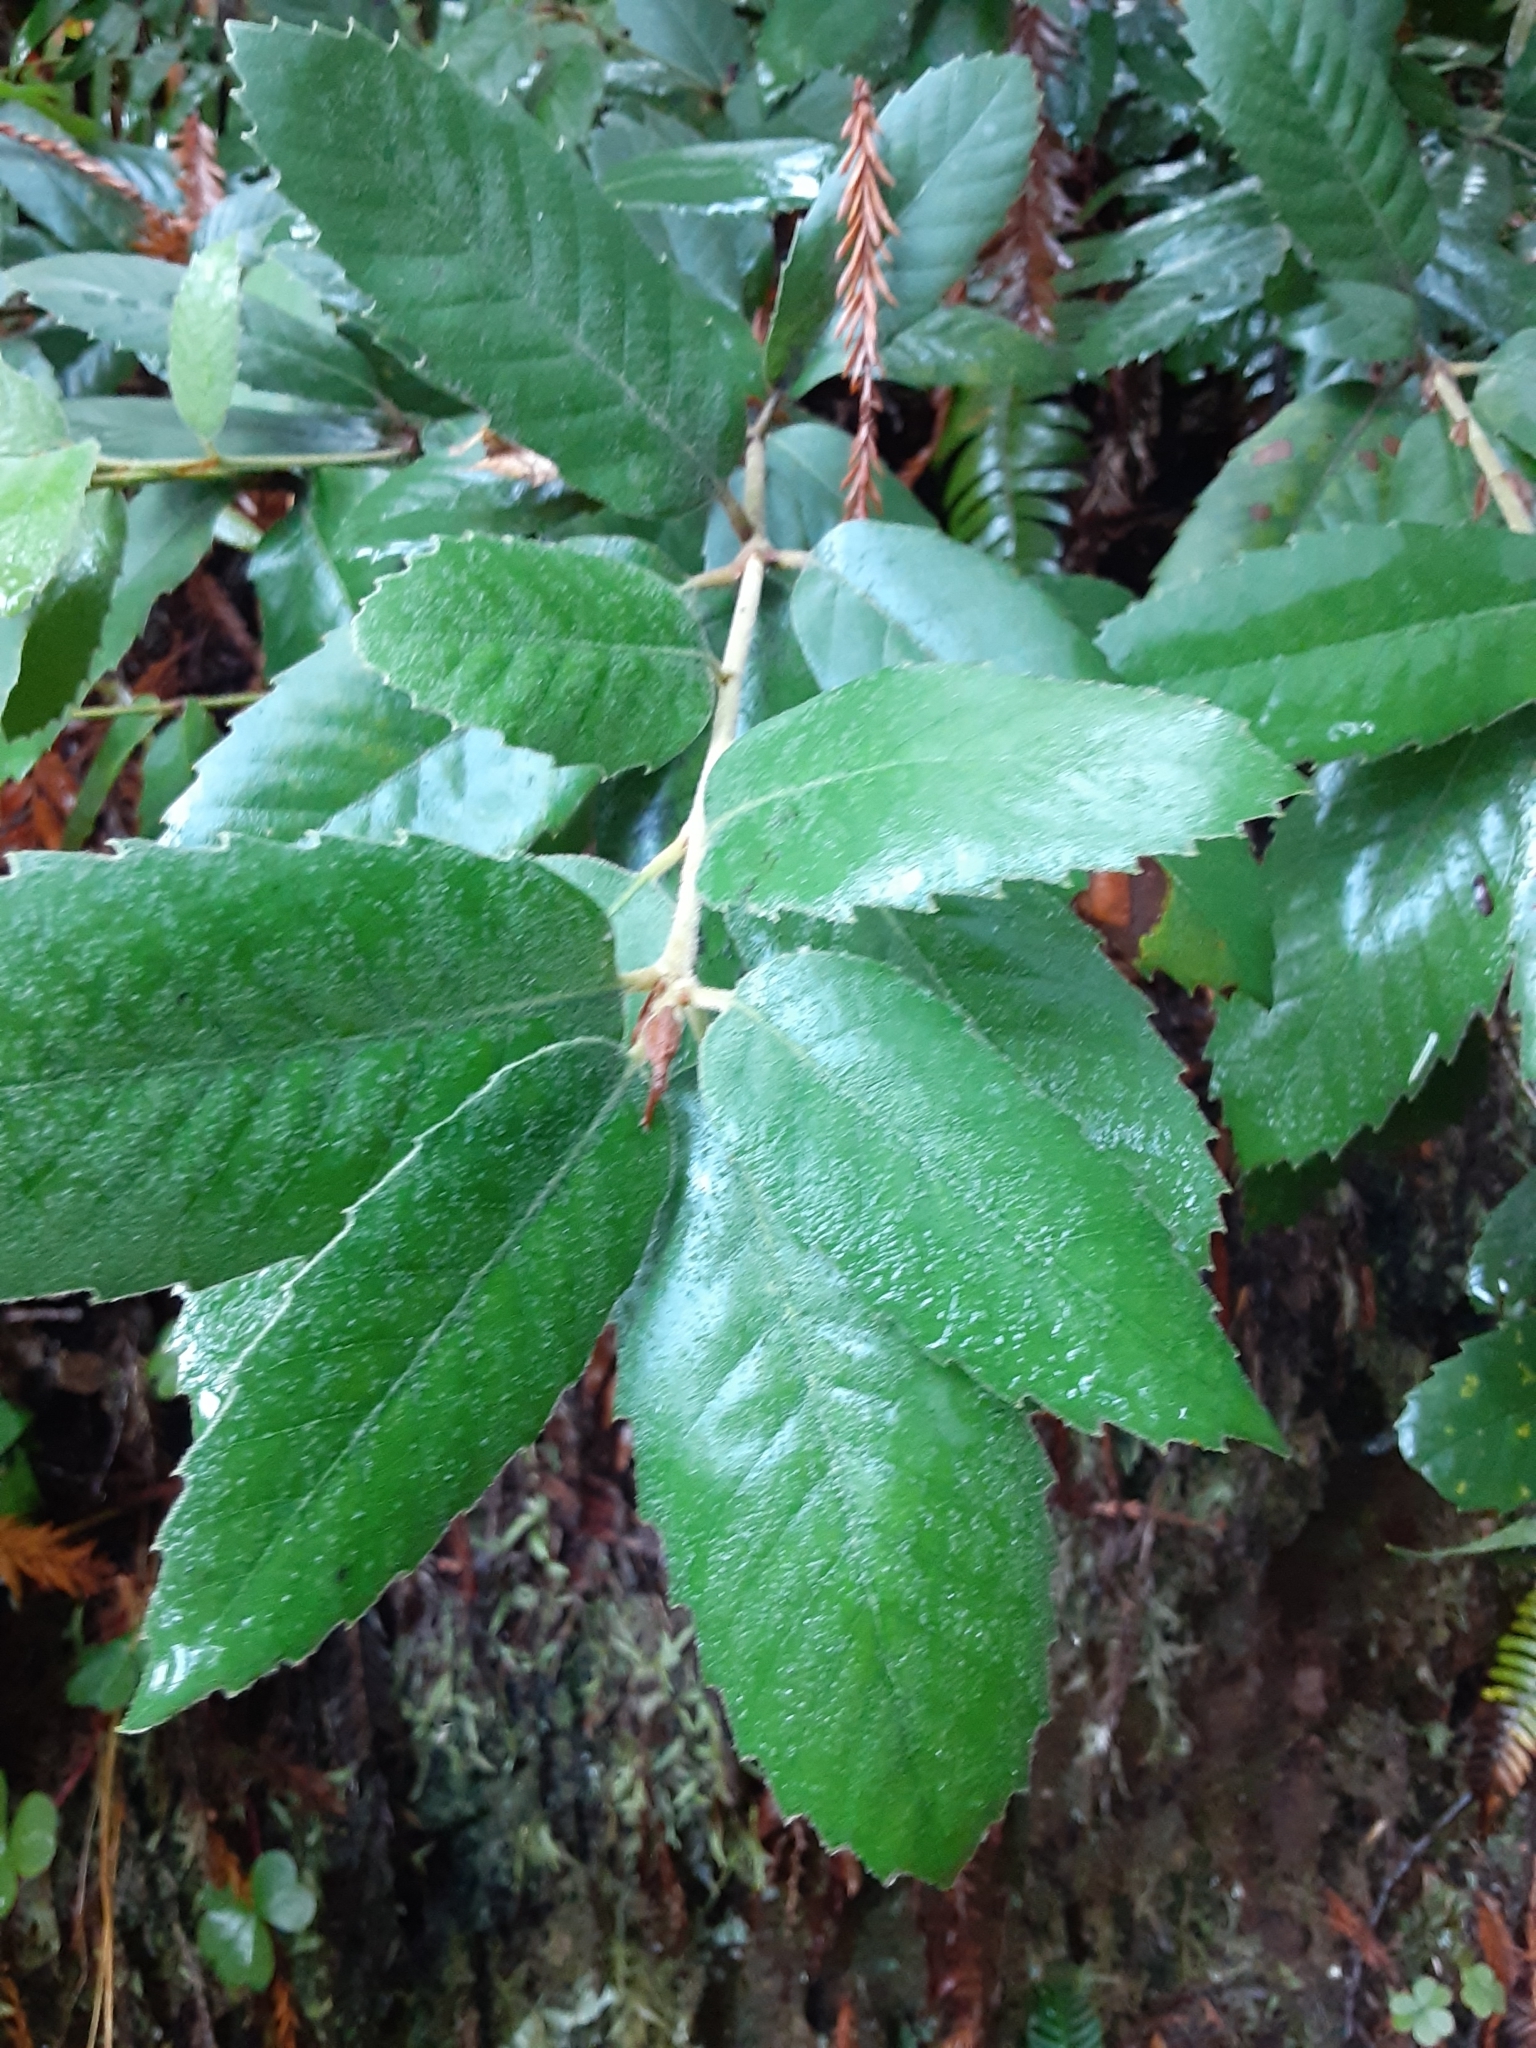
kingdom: Plantae
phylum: Tracheophyta
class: Magnoliopsida
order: Fagales
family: Fagaceae
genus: Notholithocarpus
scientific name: Notholithocarpus densiflorus
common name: Tan bark oak
